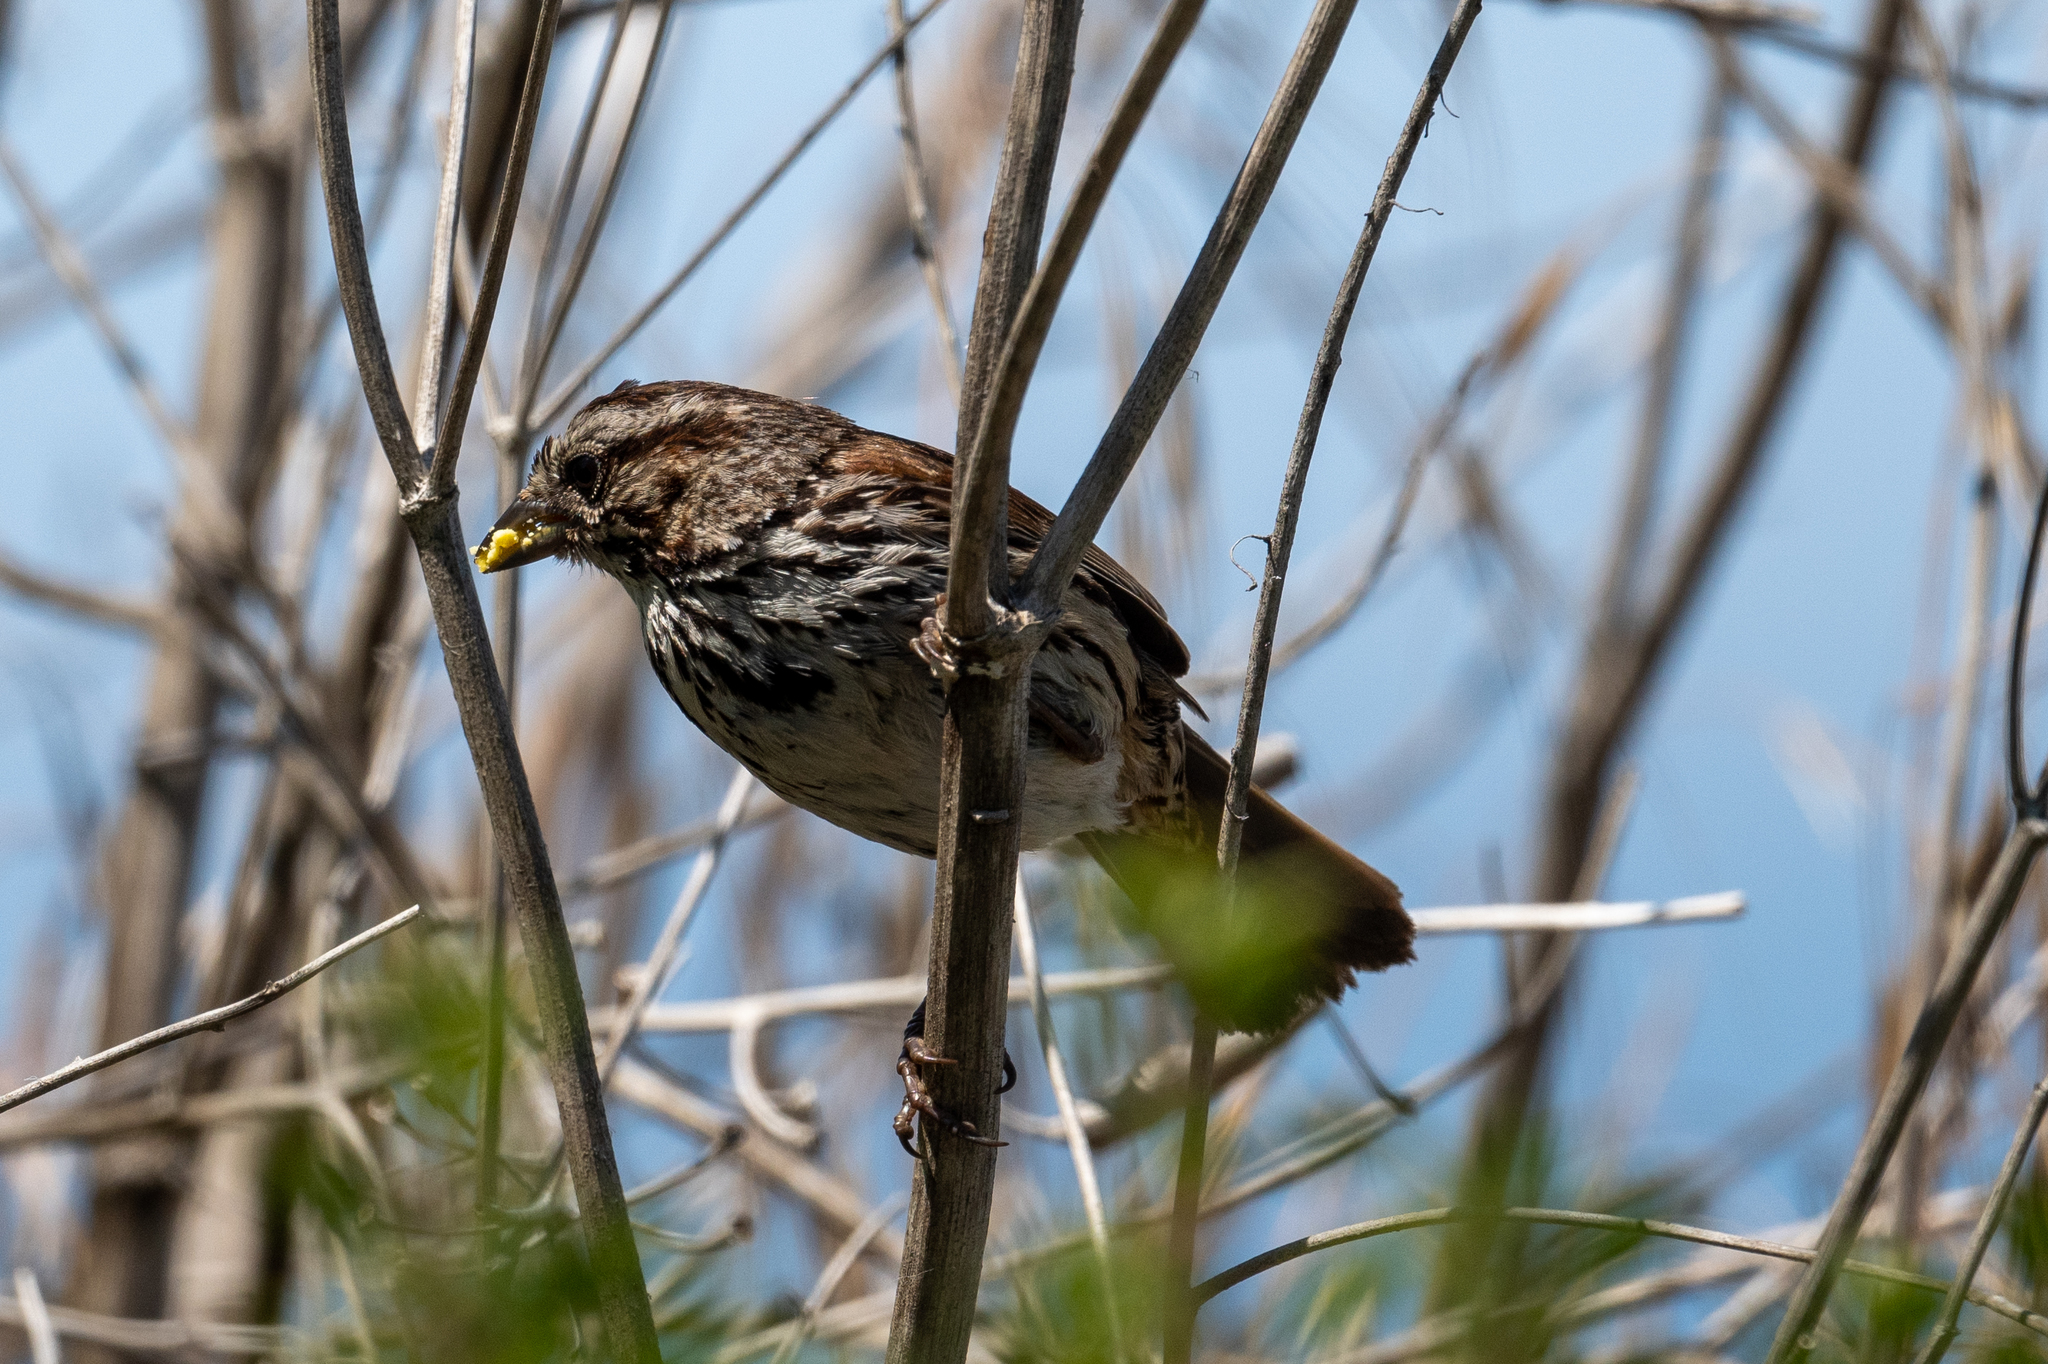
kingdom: Animalia
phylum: Chordata
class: Aves
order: Passeriformes
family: Passerellidae
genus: Melospiza
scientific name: Melospiza melodia
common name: Song sparrow
